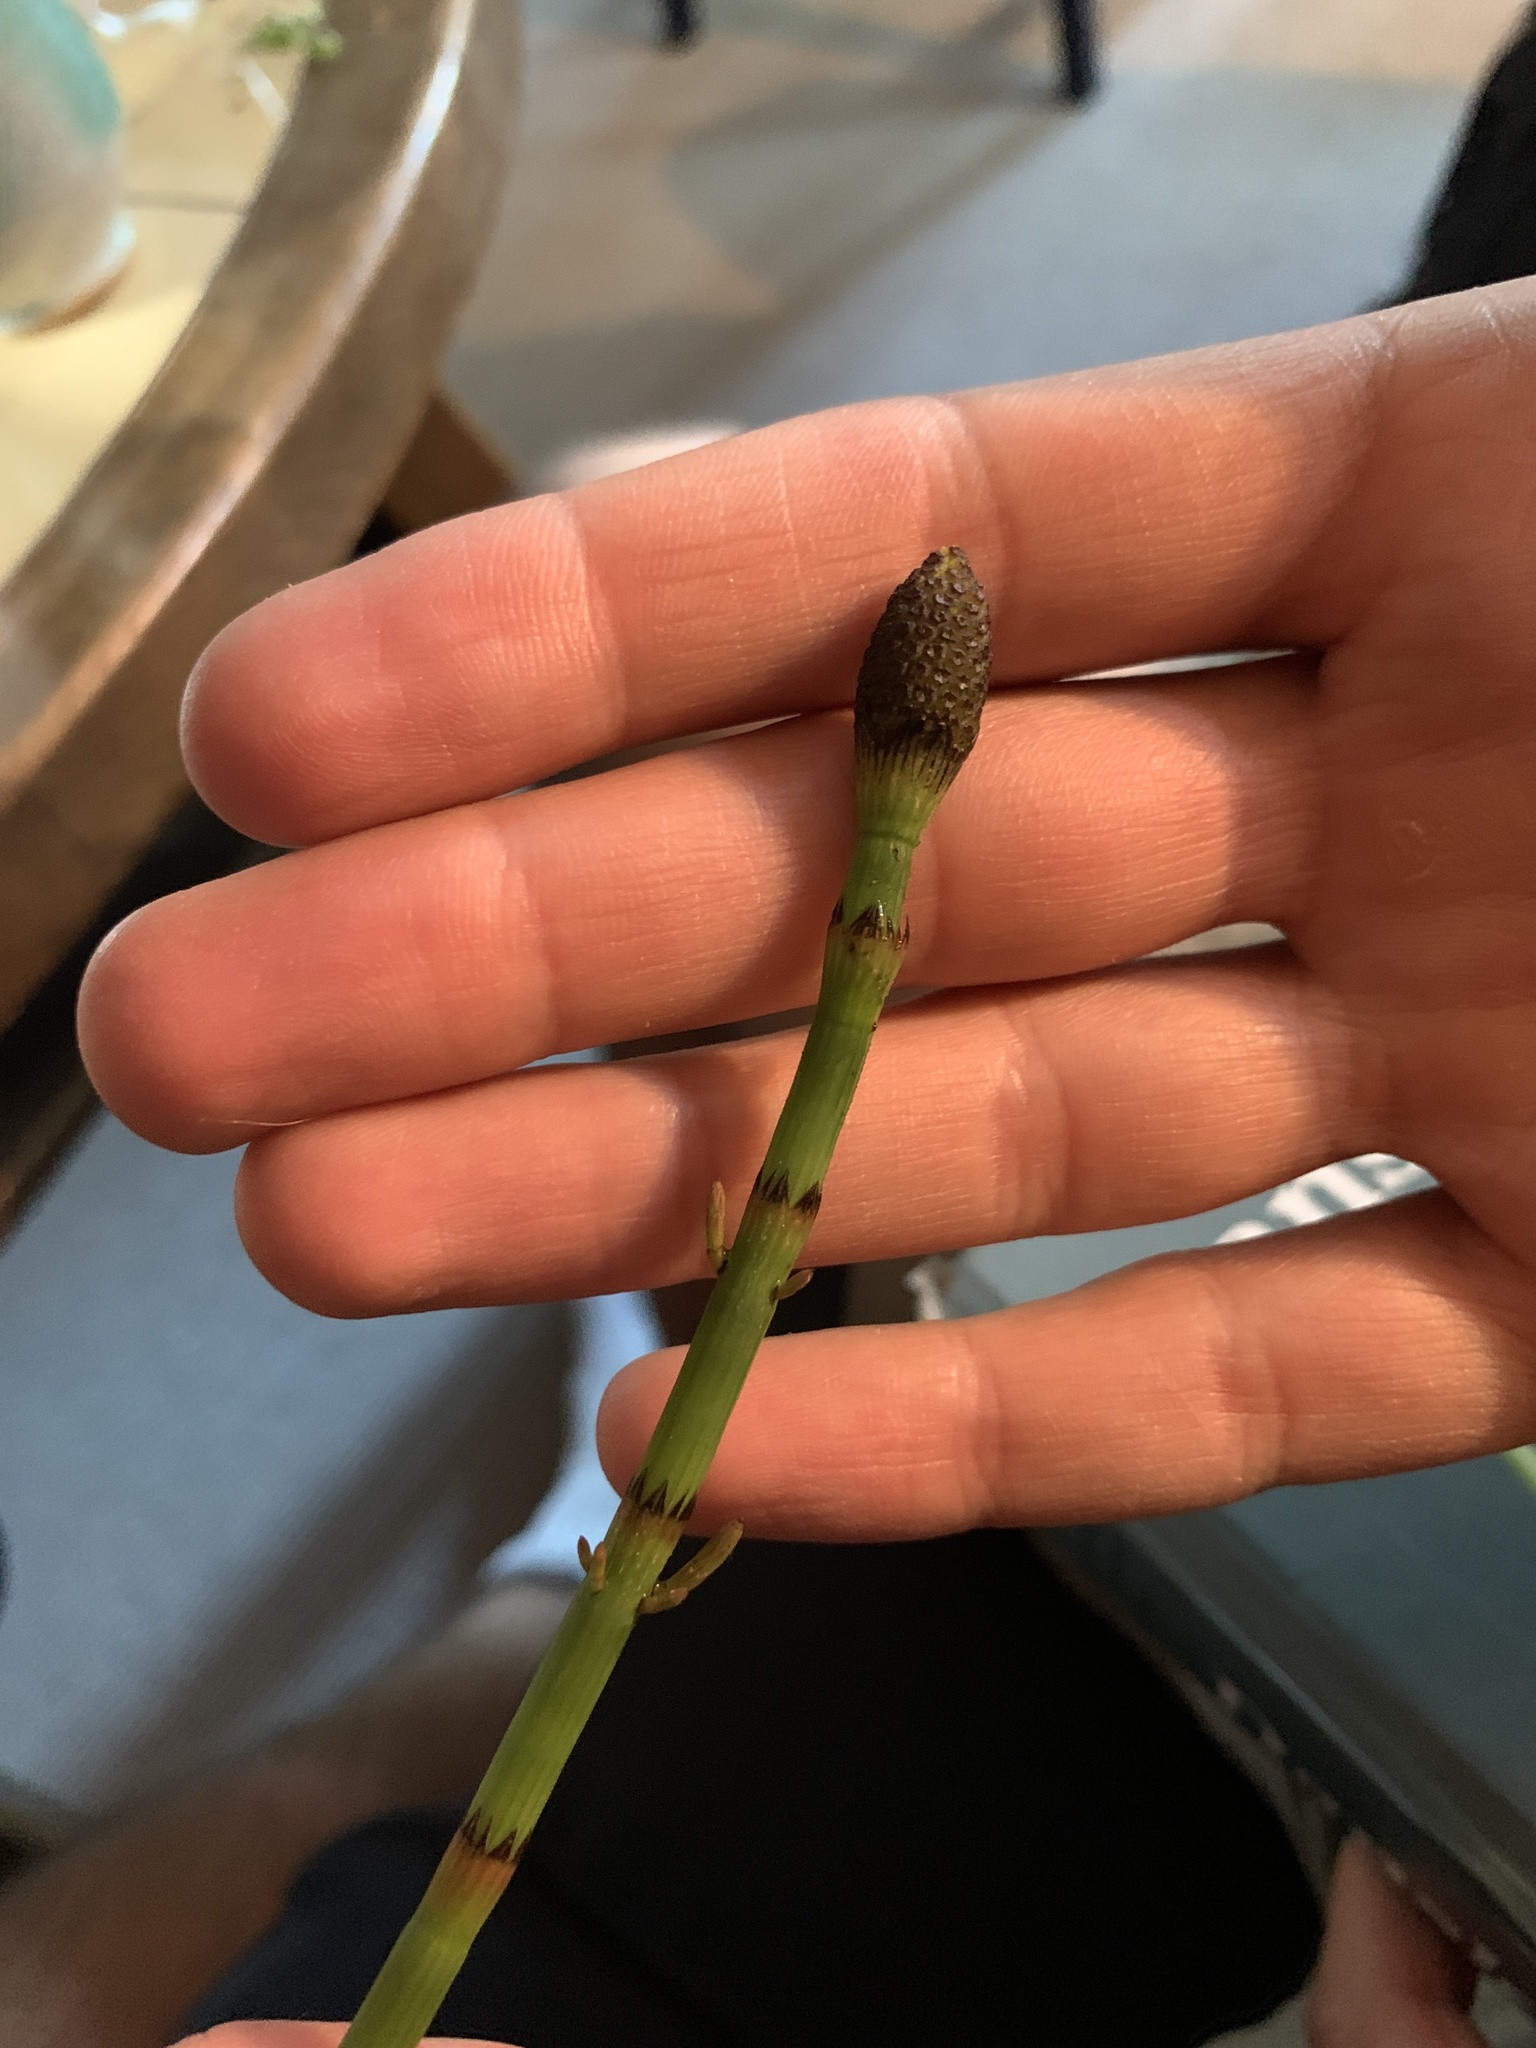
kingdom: Plantae
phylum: Tracheophyta
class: Polypodiopsida
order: Equisetales
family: Equisetaceae
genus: Equisetum
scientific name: Equisetum fluviatile
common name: Water horsetail
